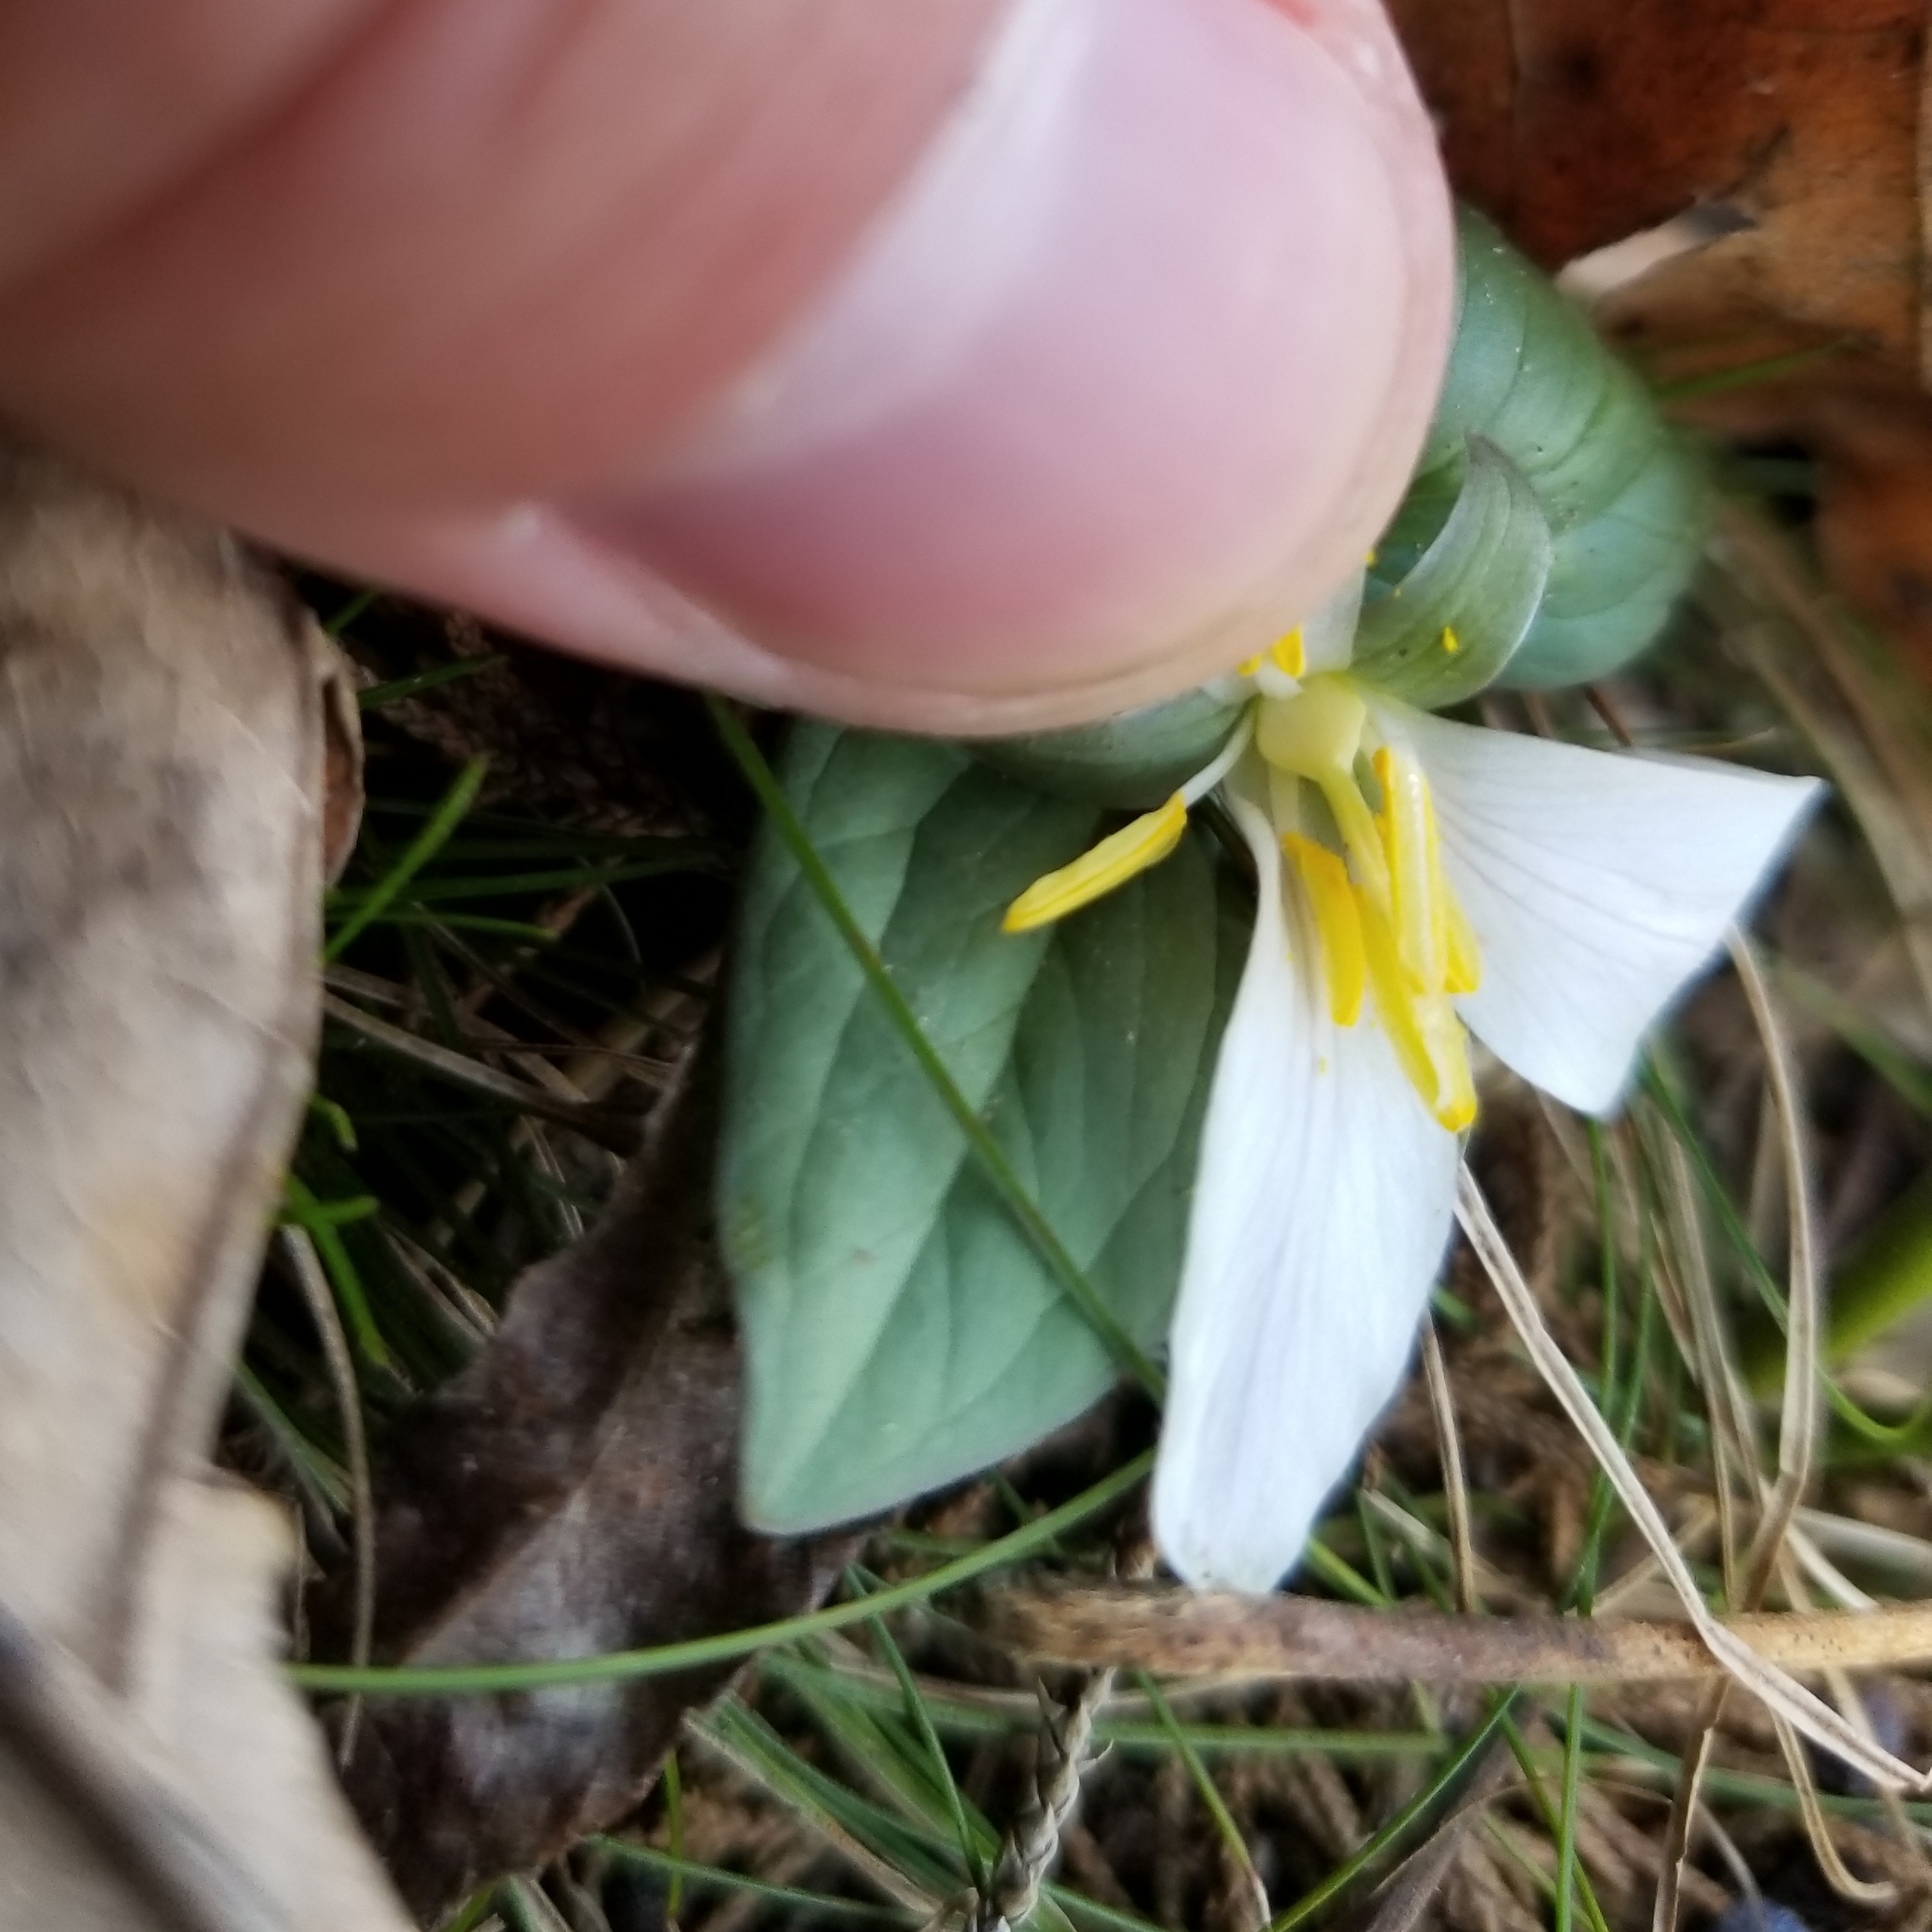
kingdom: Plantae
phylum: Tracheophyta
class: Liliopsida
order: Liliales
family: Melanthiaceae
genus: Trillium
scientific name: Trillium nivale
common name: Dwarf white trillium
